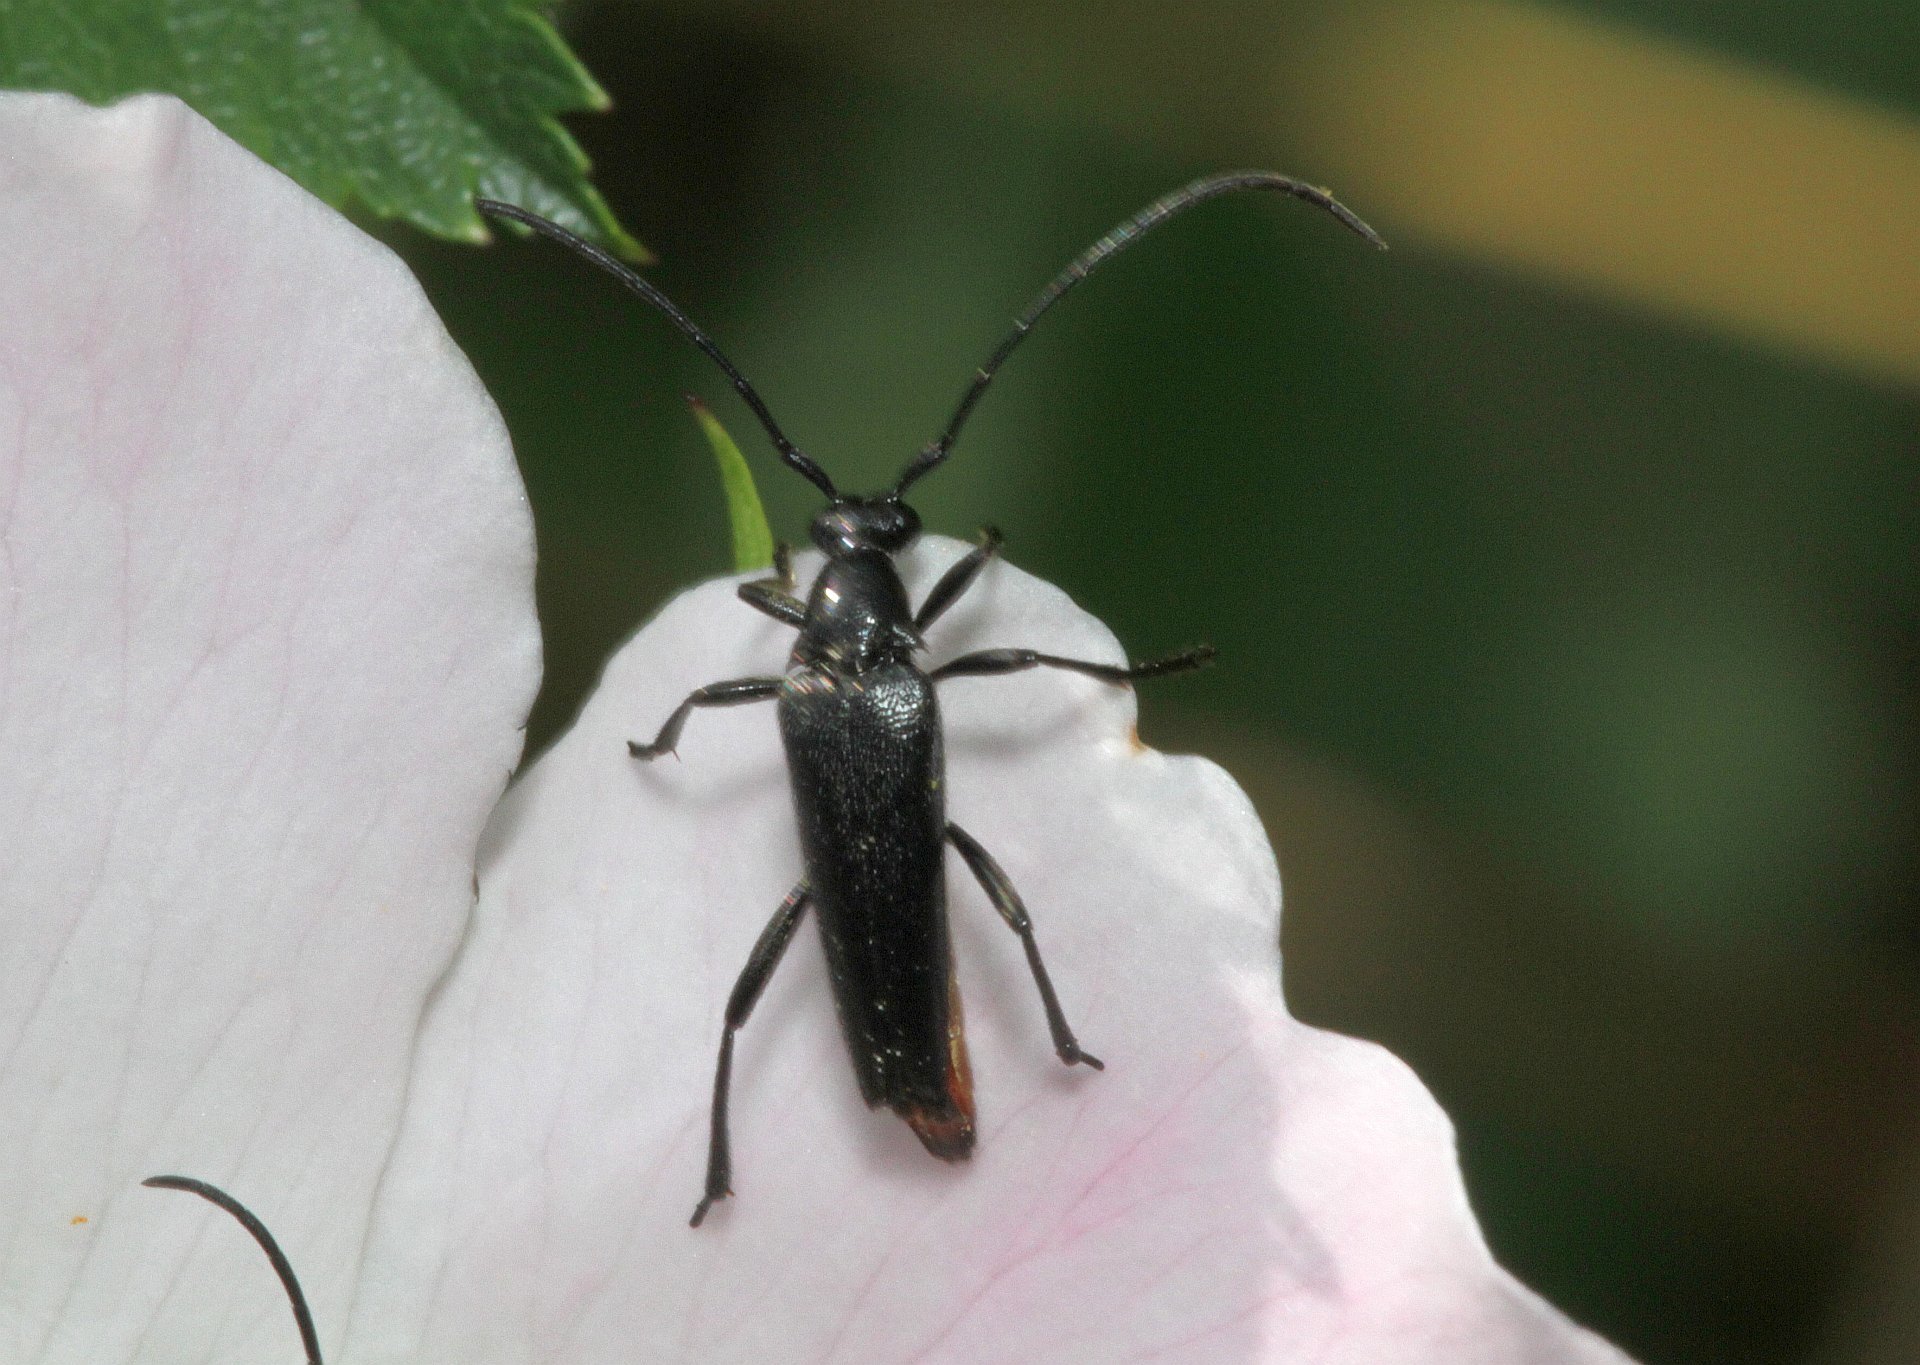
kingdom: Animalia
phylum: Arthropoda
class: Insecta
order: Coleoptera
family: Cerambycidae
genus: Stenurella
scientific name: Stenurella nigra
